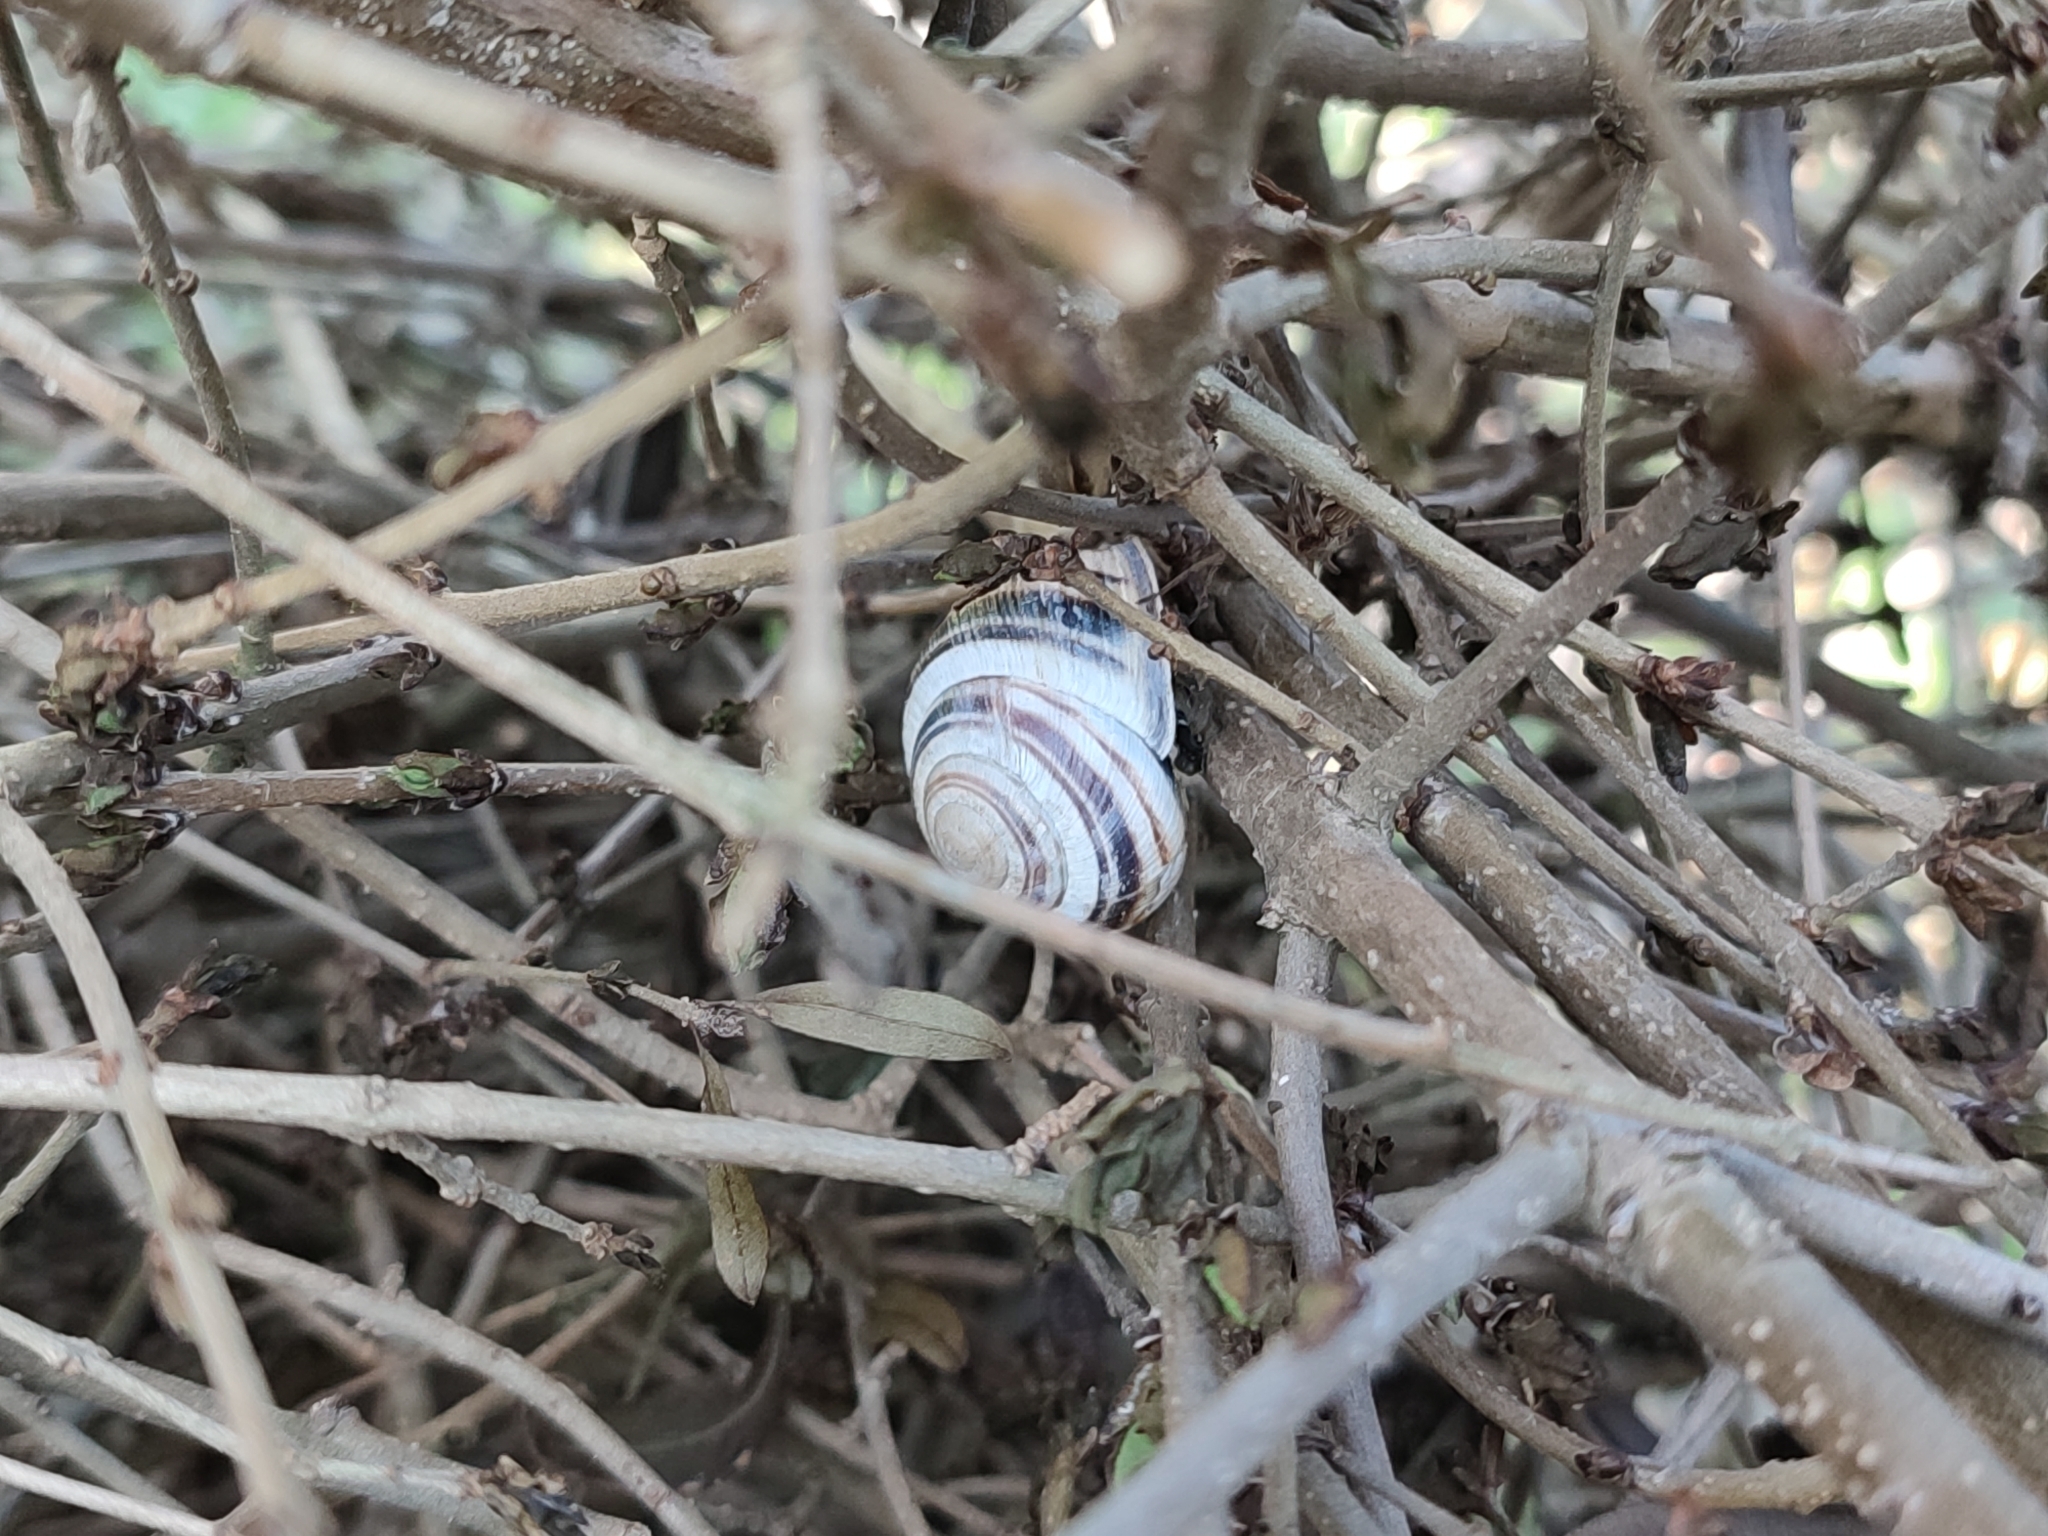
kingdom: Animalia
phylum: Mollusca
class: Gastropoda
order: Stylommatophora
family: Helicidae
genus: Caucasotachea
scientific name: Caucasotachea vindobonensis
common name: European helicid land snail
